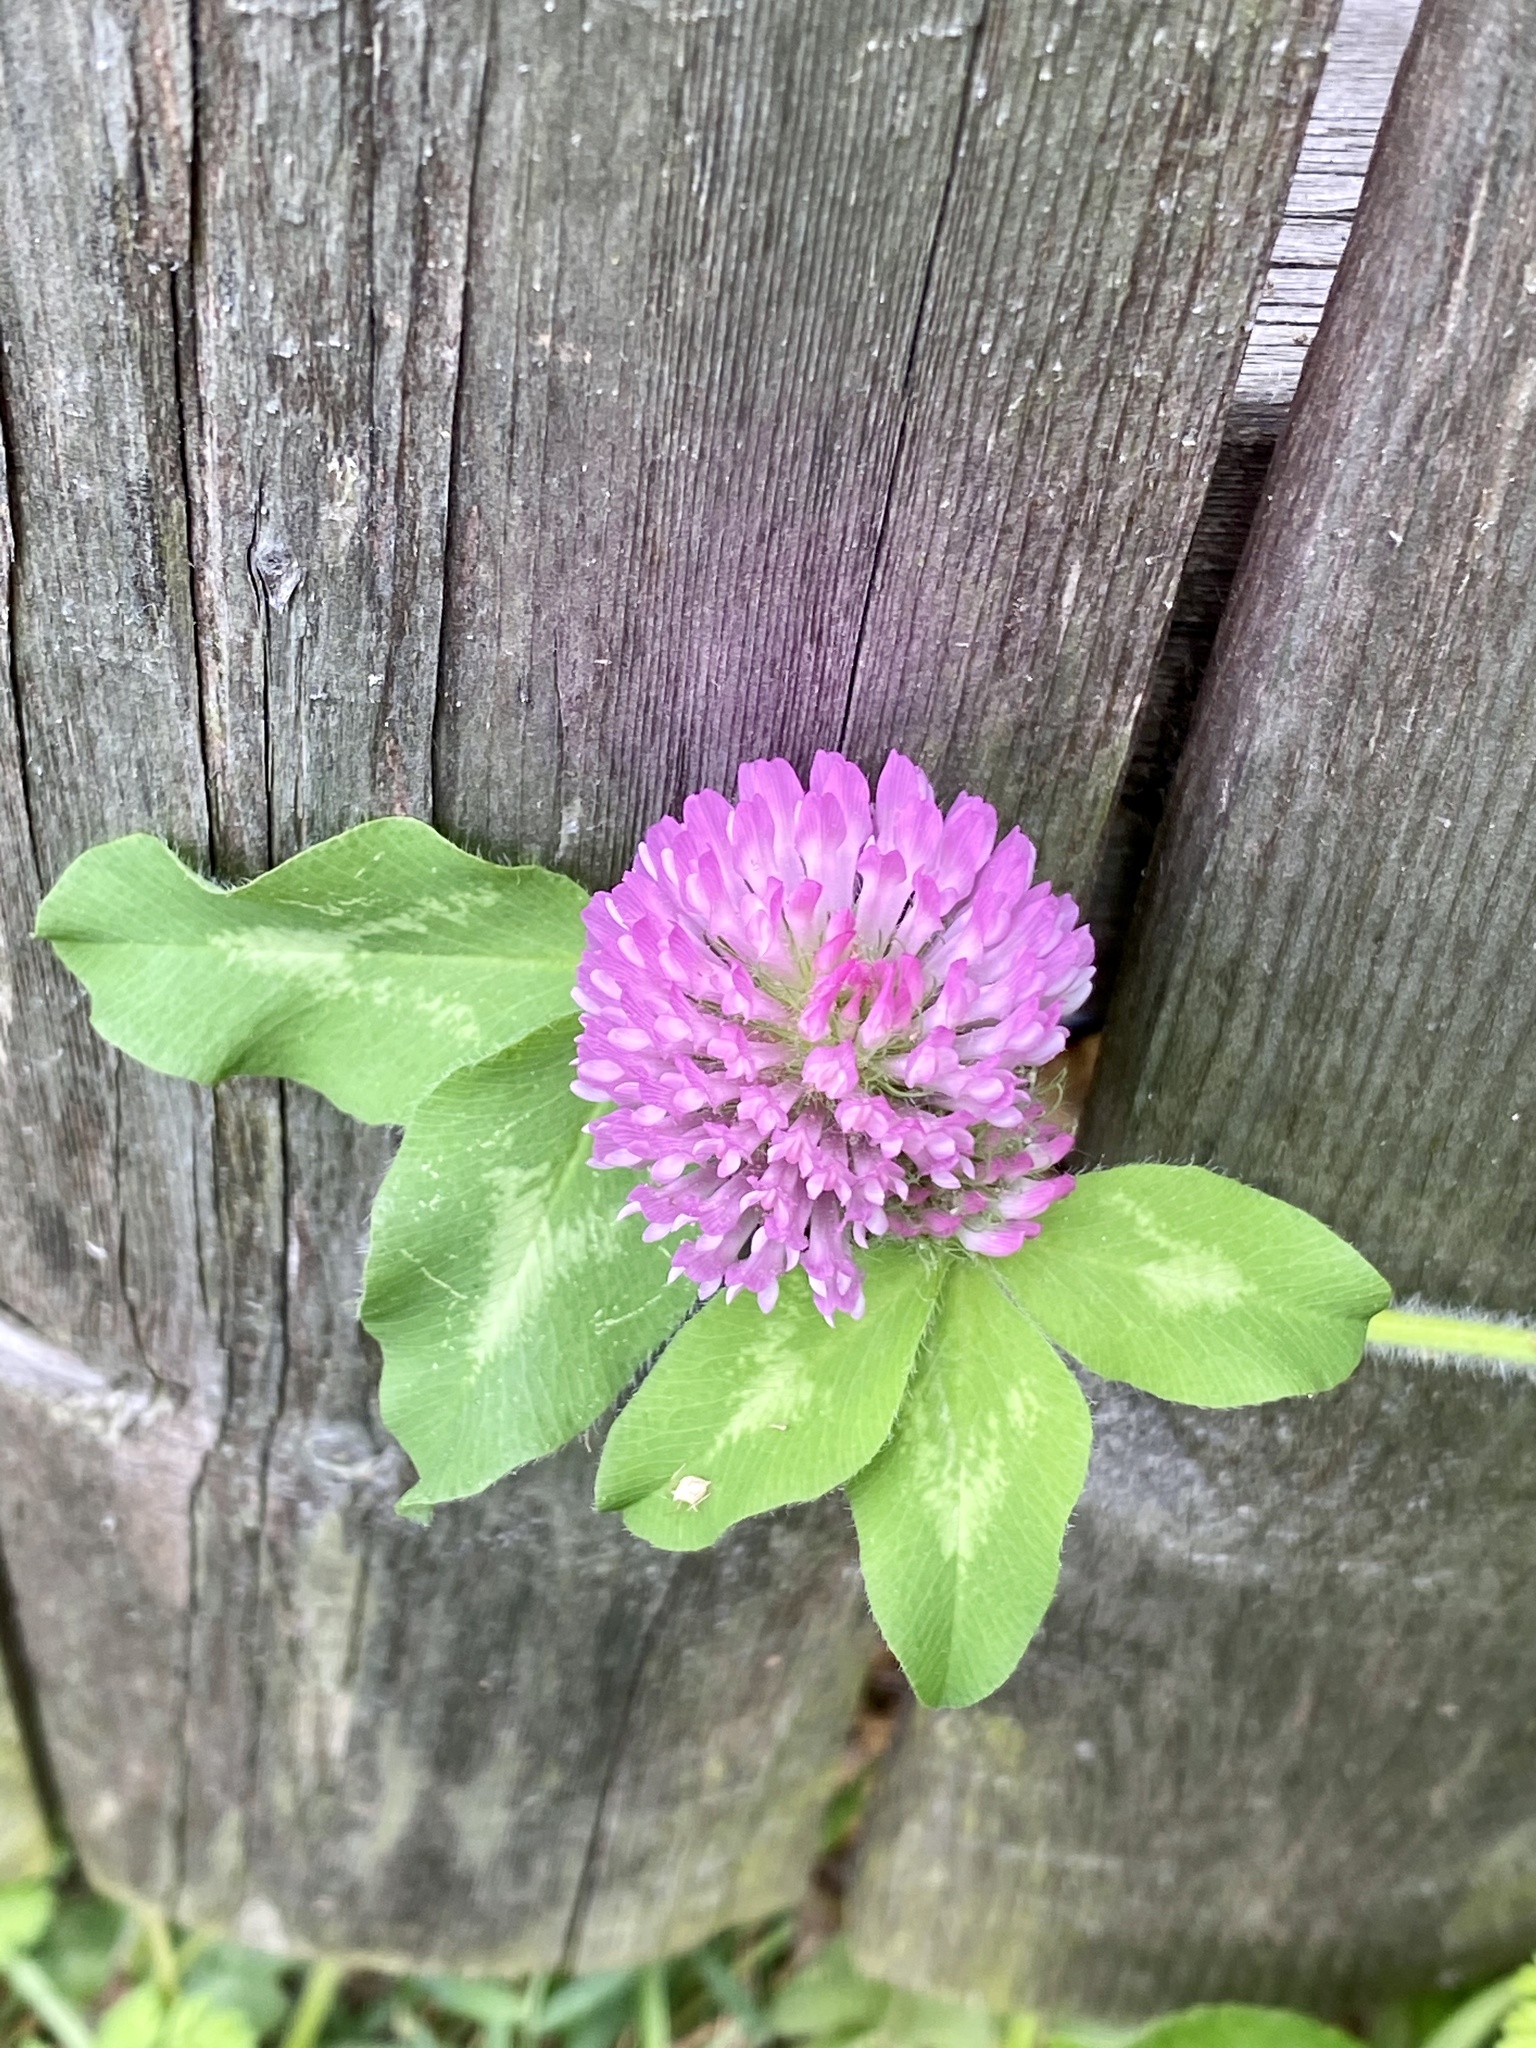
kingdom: Plantae
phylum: Tracheophyta
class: Magnoliopsida
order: Fabales
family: Fabaceae
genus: Trifolium
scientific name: Trifolium pratense
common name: Red clover
